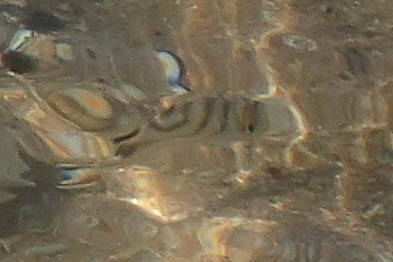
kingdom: Animalia
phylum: Chordata
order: Perciformes
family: Terapontidae
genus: Terapon
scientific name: Terapon jarbua
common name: Jarbua terapon
